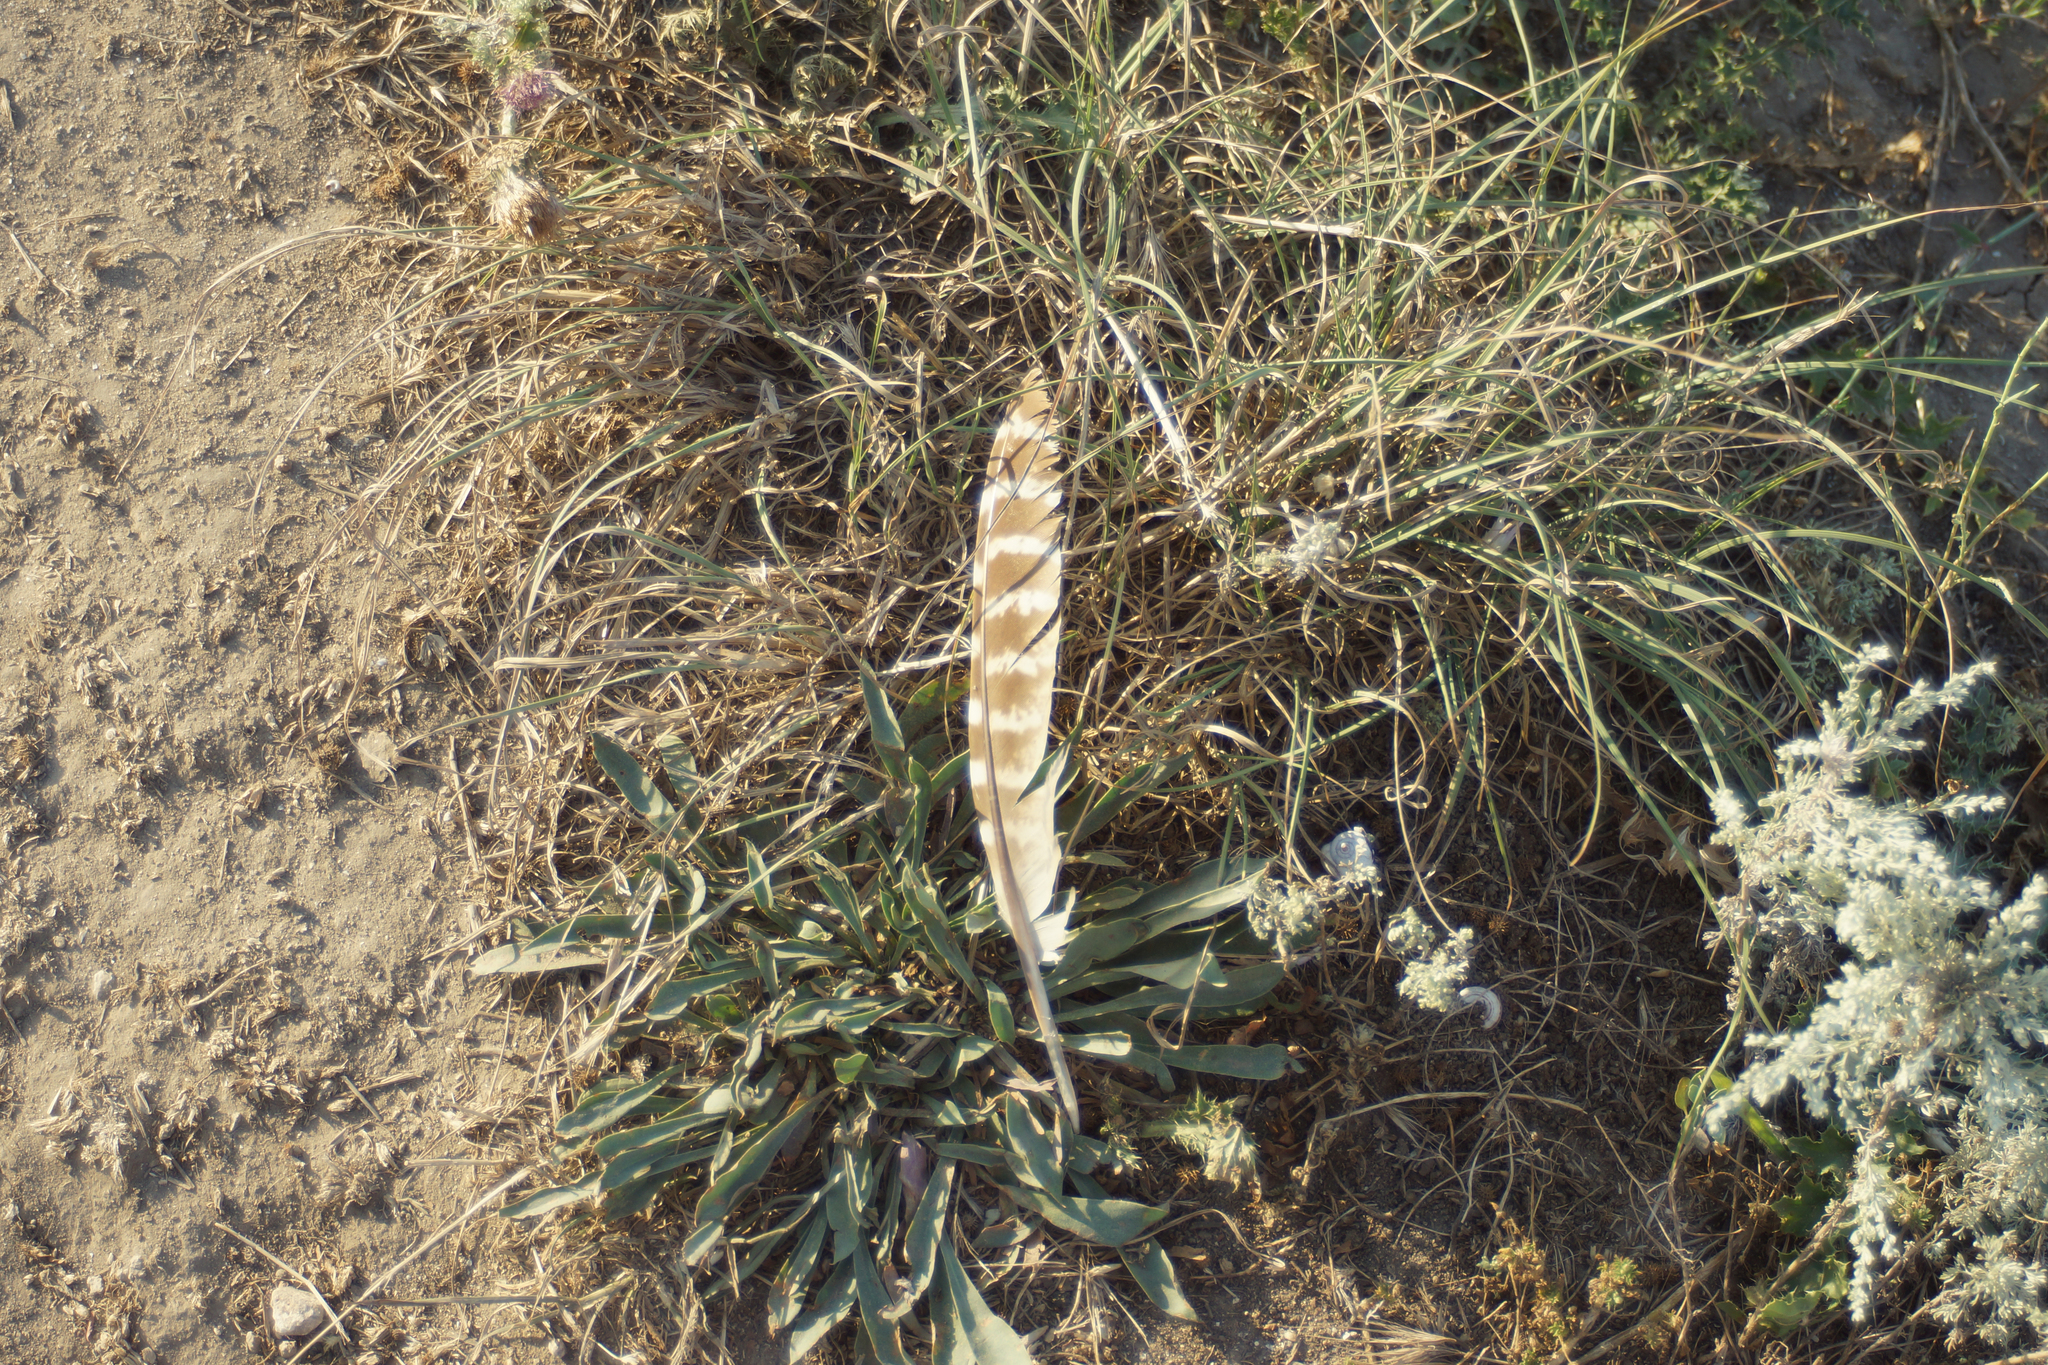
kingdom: Animalia
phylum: Chordata
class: Aves
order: Galliformes
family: Phasianidae
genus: Phasianus
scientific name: Phasianus colchicus
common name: Common pheasant
